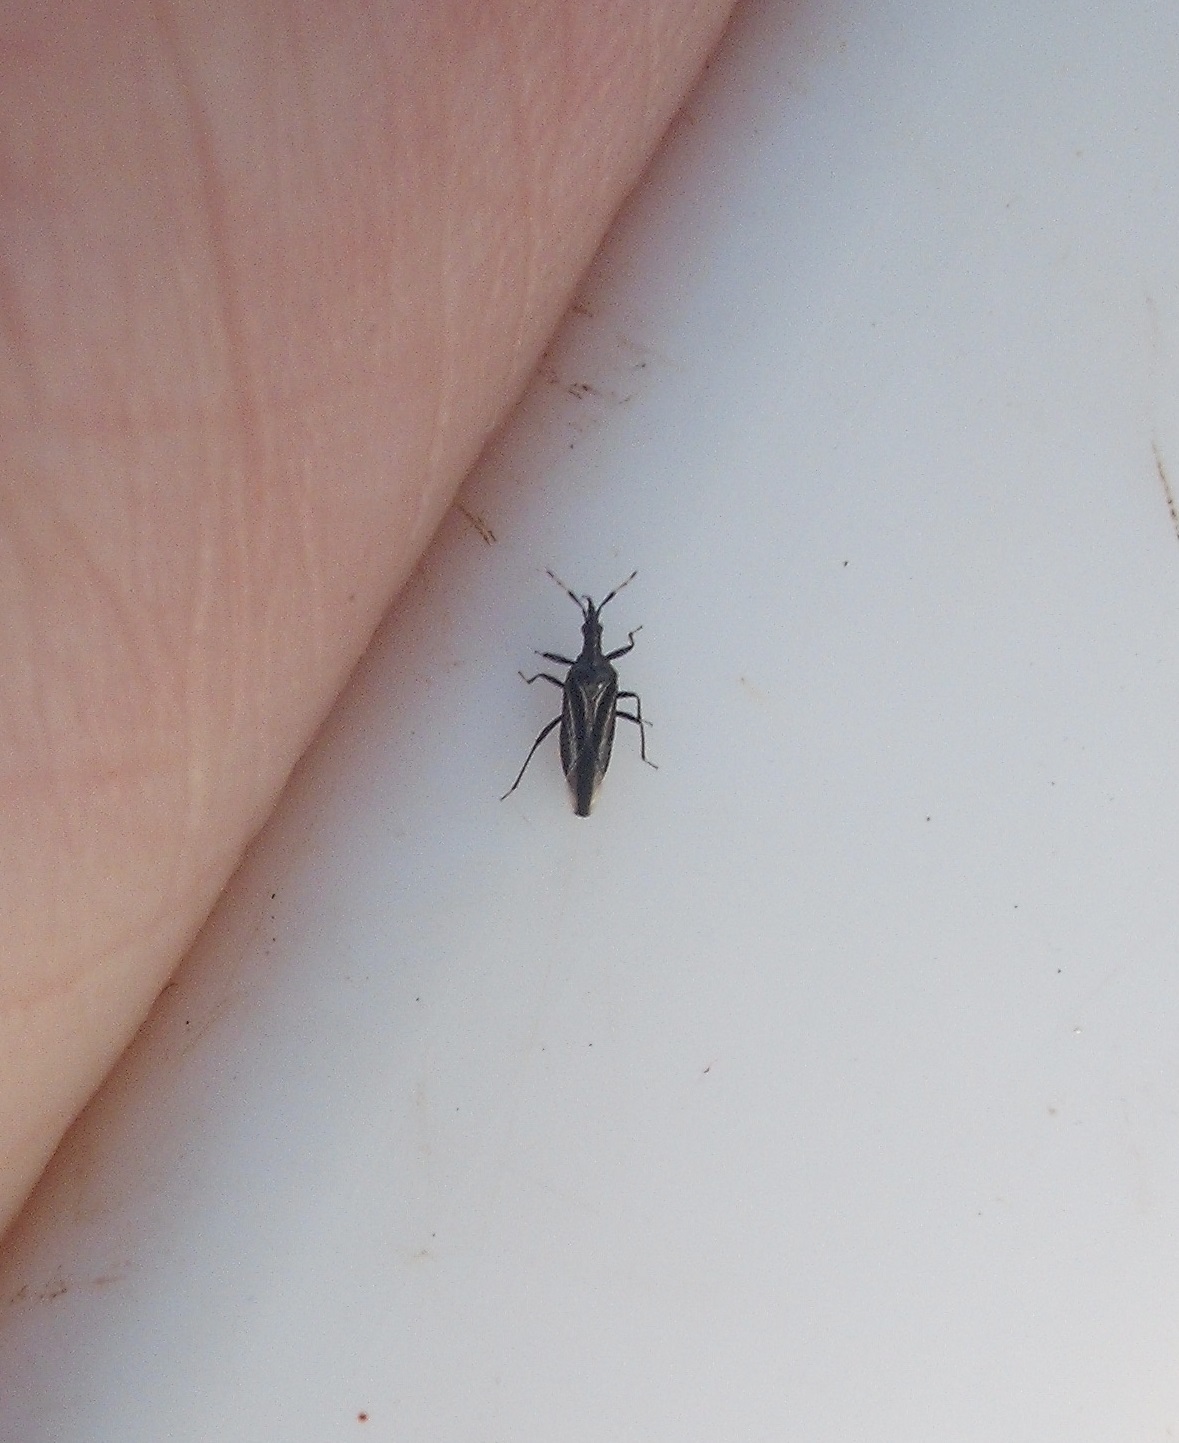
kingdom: Animalia
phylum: Arthropoda
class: Insecta
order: Hemiptera
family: Anthocoridae
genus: Macrotrachelia
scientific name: Macrotrachelia nigronitens
